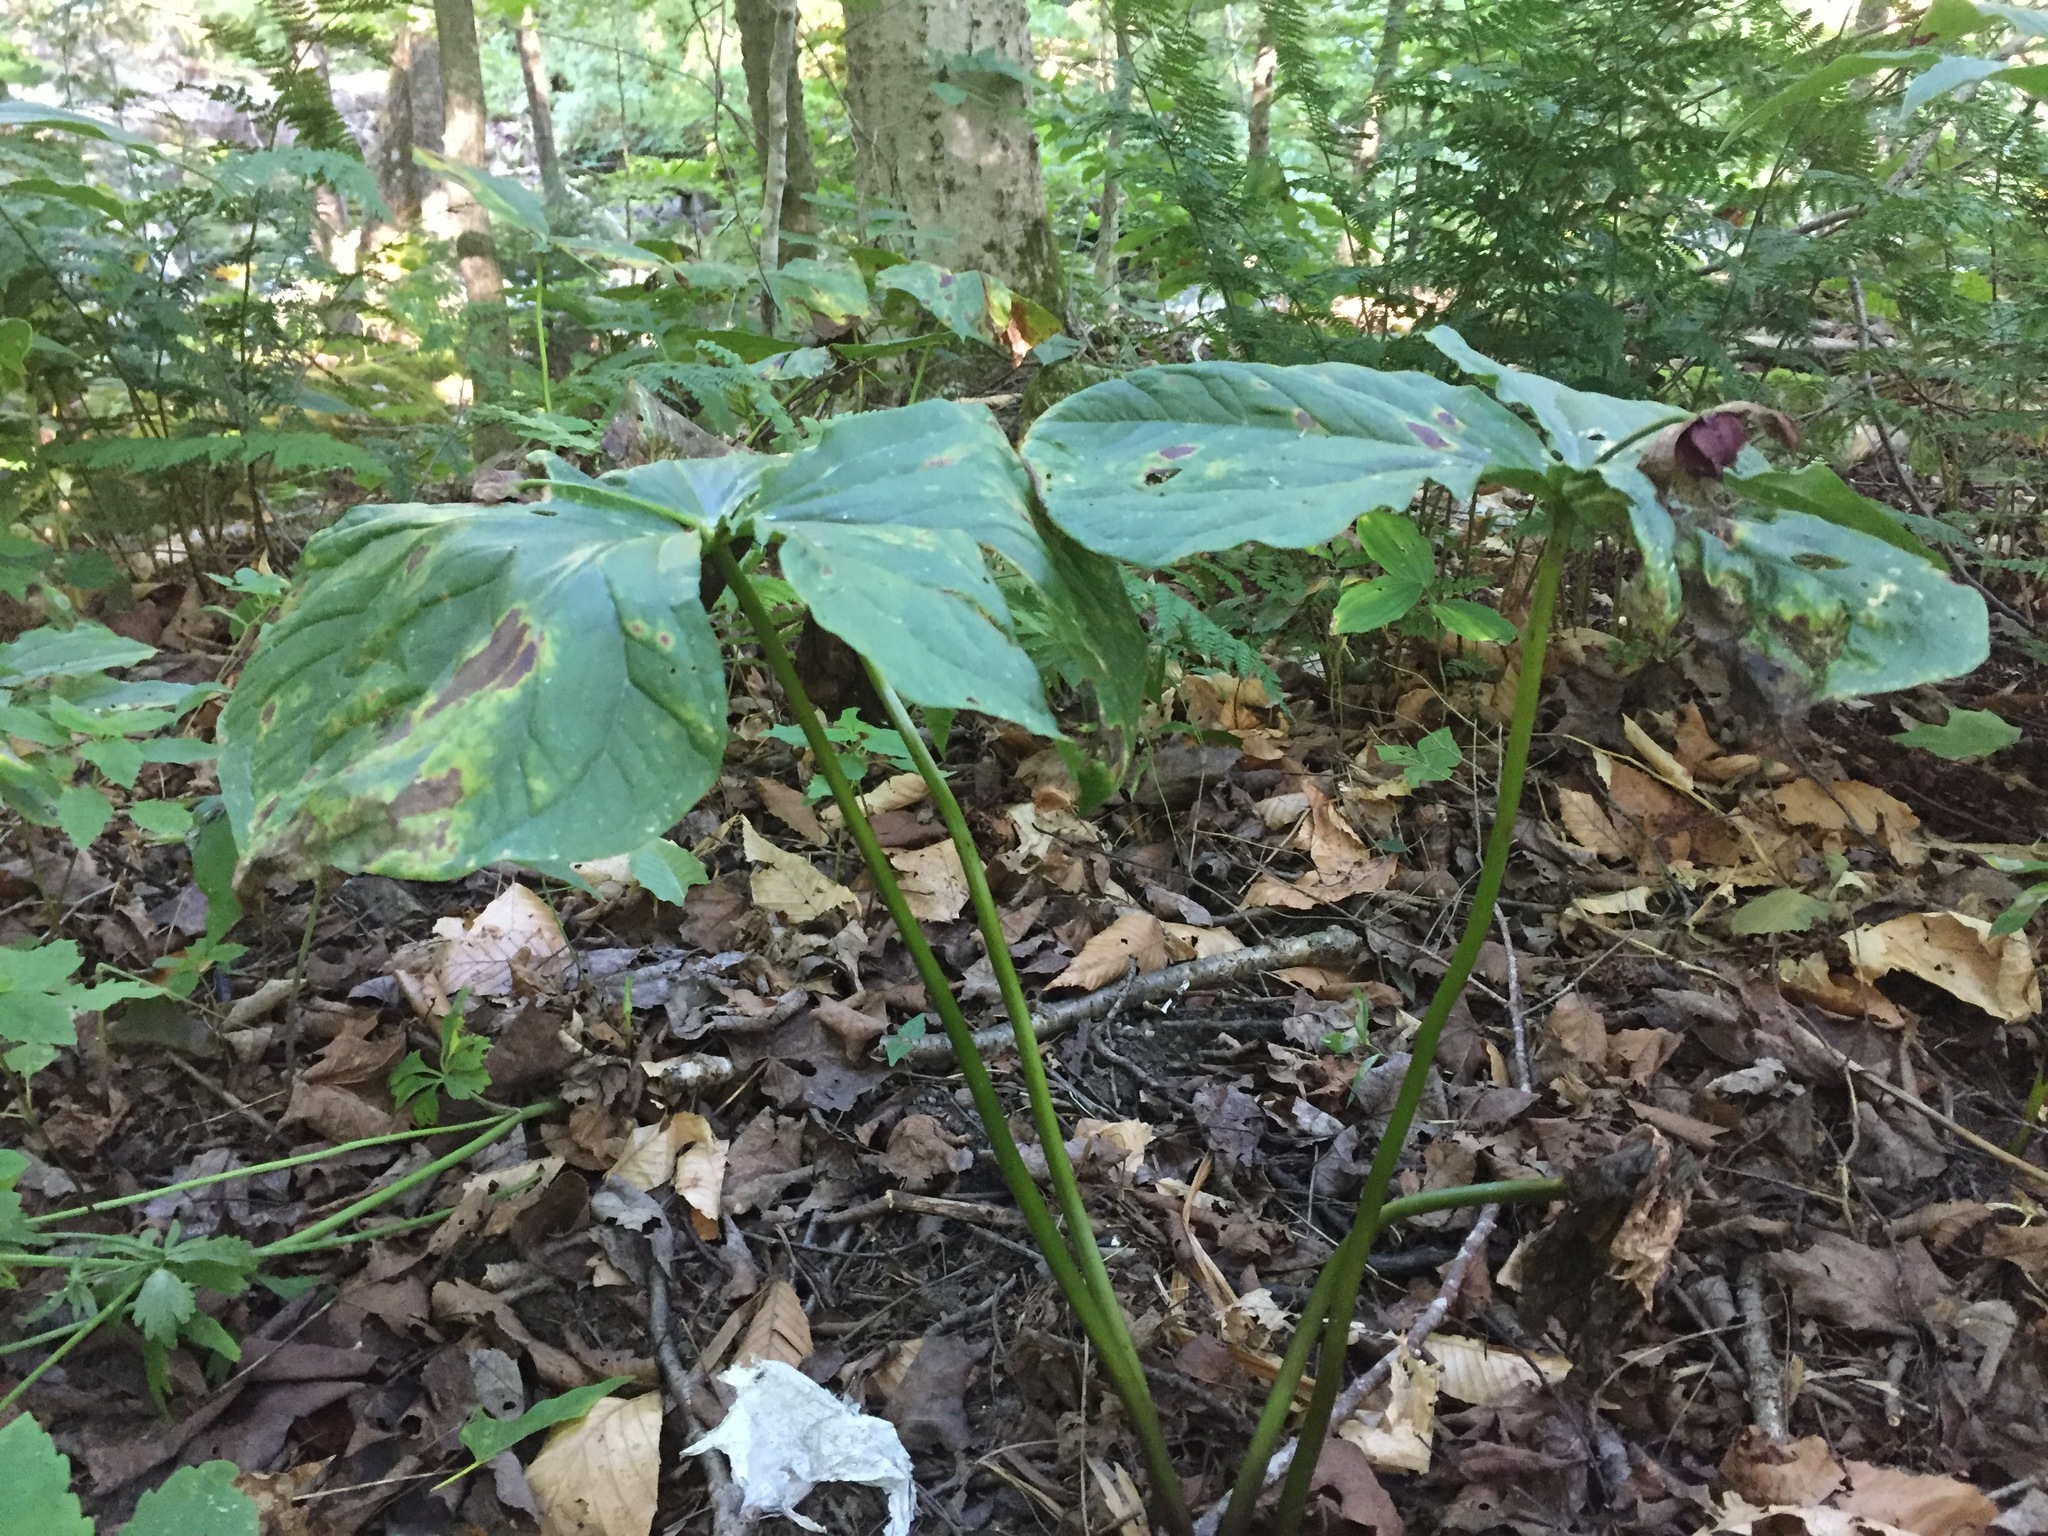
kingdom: Plantae
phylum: Tracheophyta
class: Liliopsida
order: Liliales
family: Melanthiaceae
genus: Trillium
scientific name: Trillium erectum
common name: Purple trillium
